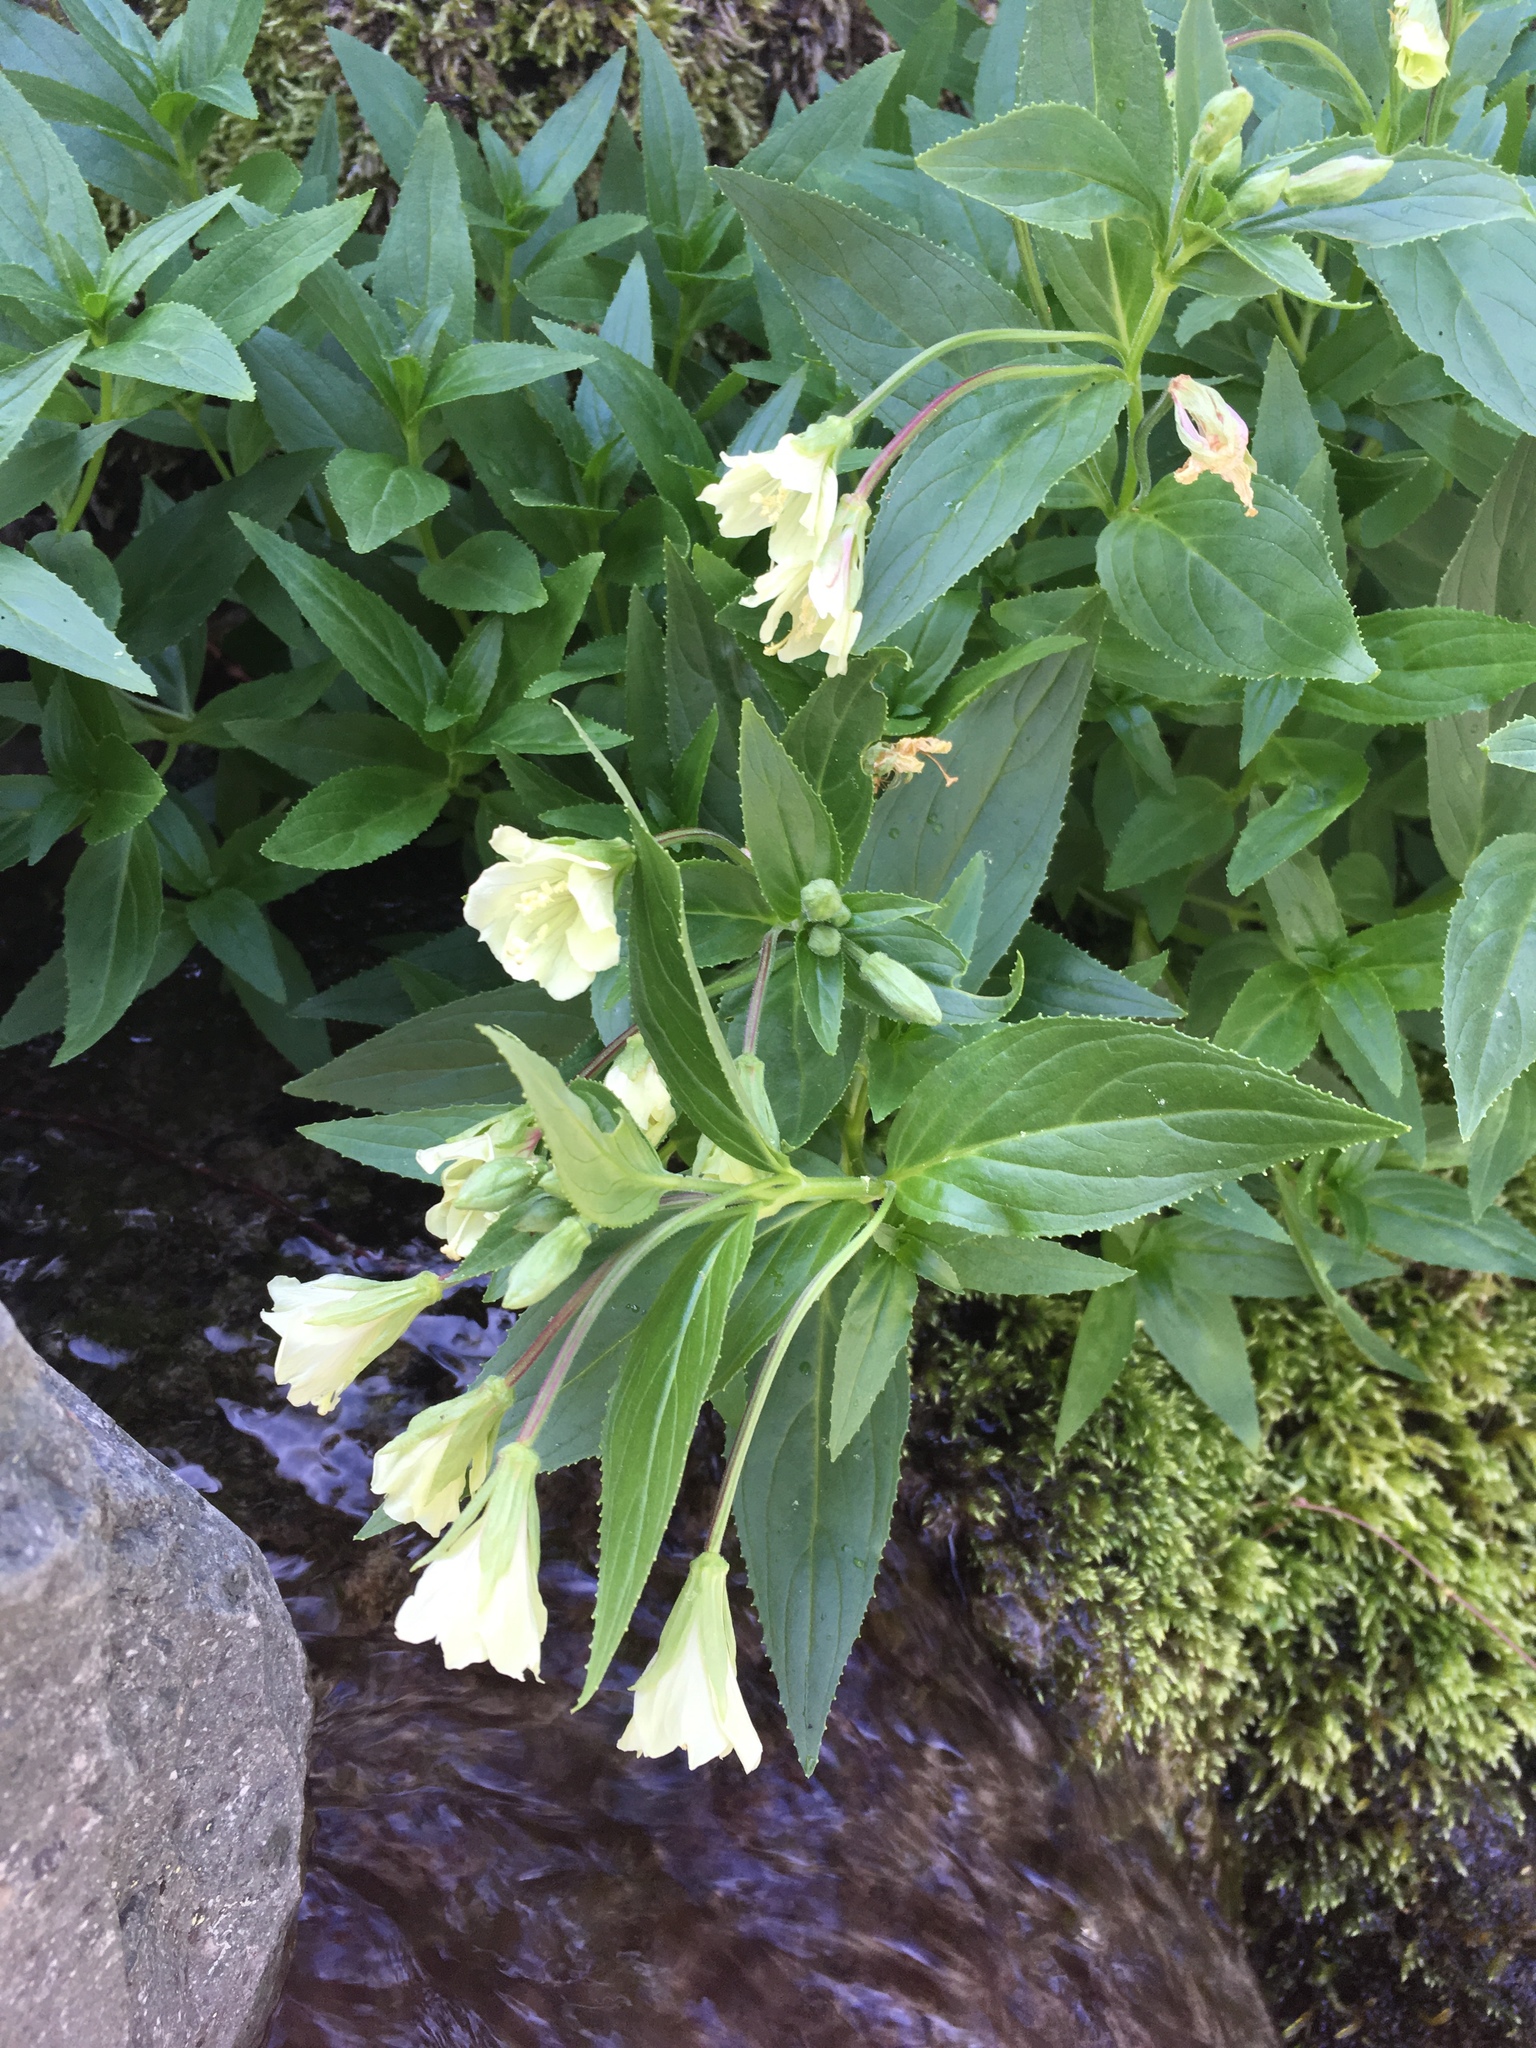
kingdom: Plantae
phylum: Tracheophyta
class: Magnoliopsida
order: Myrtales
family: Onagraceae
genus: Epilobium
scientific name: Epilobium luteum
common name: Yellow willowherb
